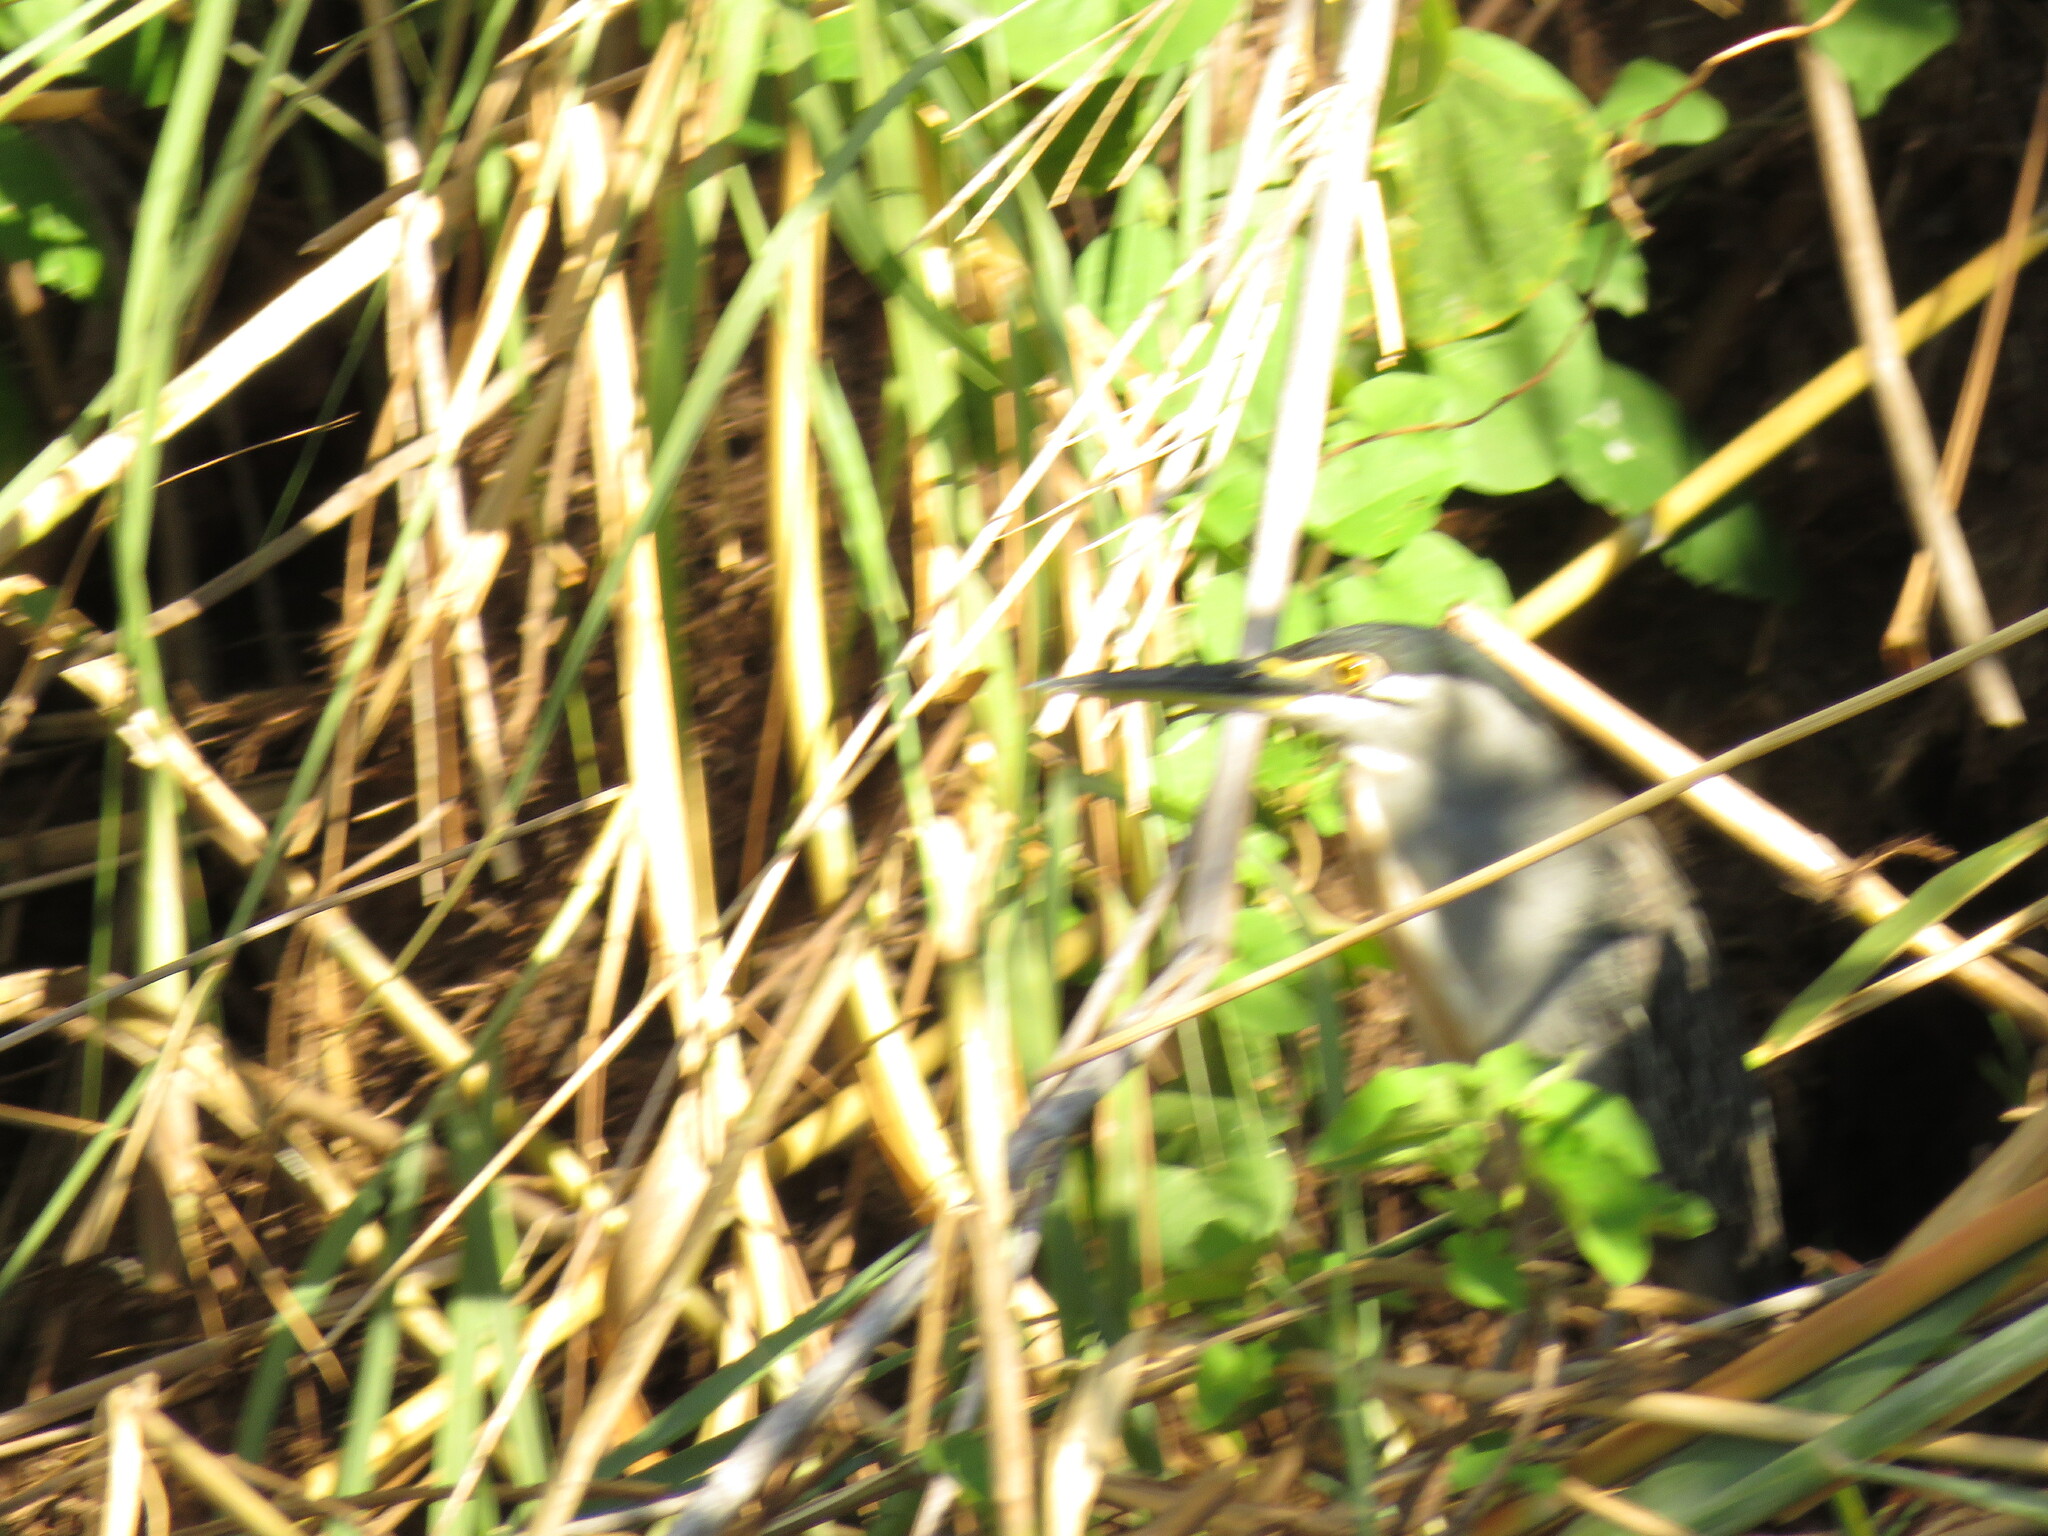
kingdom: Animalia
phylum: Chordata
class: Aves
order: Pelecaniformes
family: Ardeidae
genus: Butorides
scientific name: Butorides striata
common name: Striated heron
